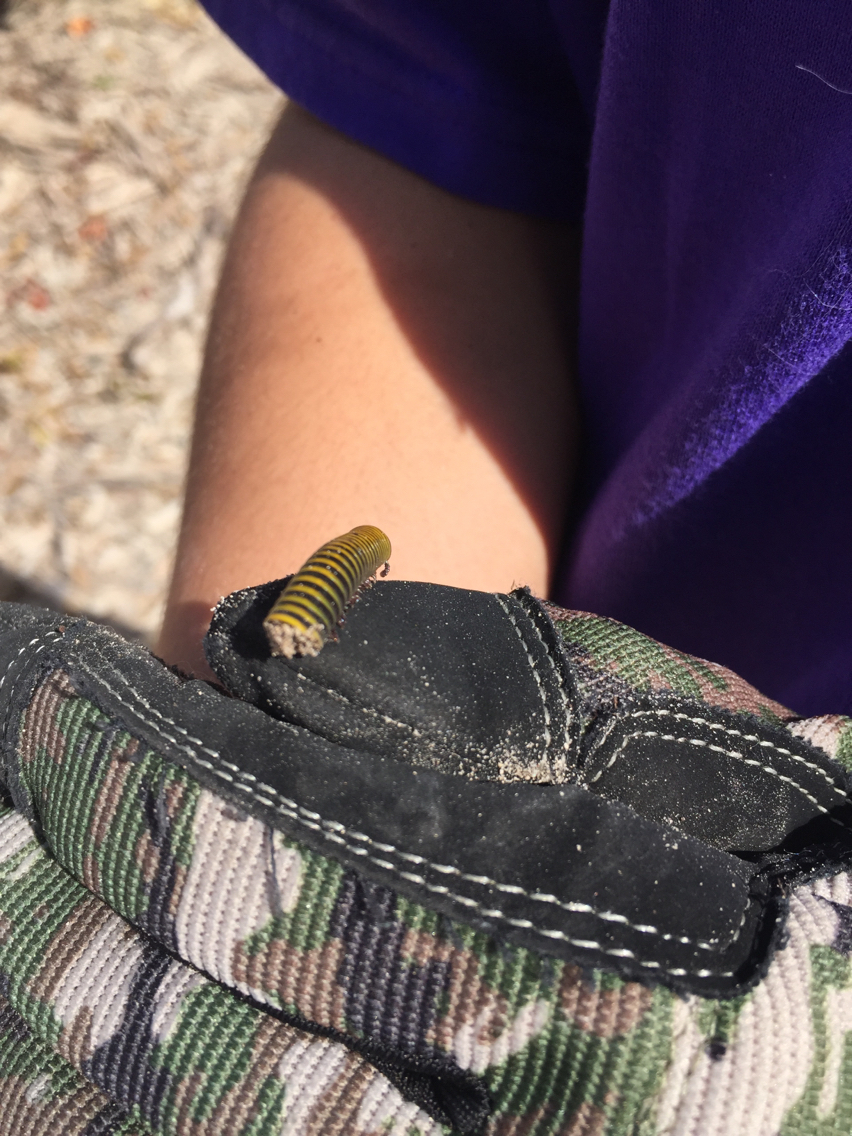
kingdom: Animalia
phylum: Arthropoda
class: Diplopoda
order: Spirobolida
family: Rhinocricidae
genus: Anadenobolus
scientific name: Anadenobolus monilicornis
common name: Caribbean millipede
